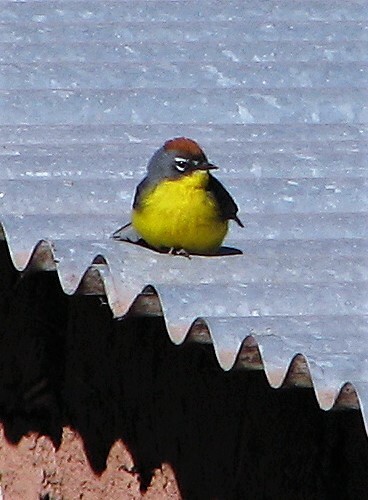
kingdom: Animalia
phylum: Chordata
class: Aves
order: Passeriformes
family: Parulidae
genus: Myioborus
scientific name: Myioborus brunniceps
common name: Brown-capped whitestart
